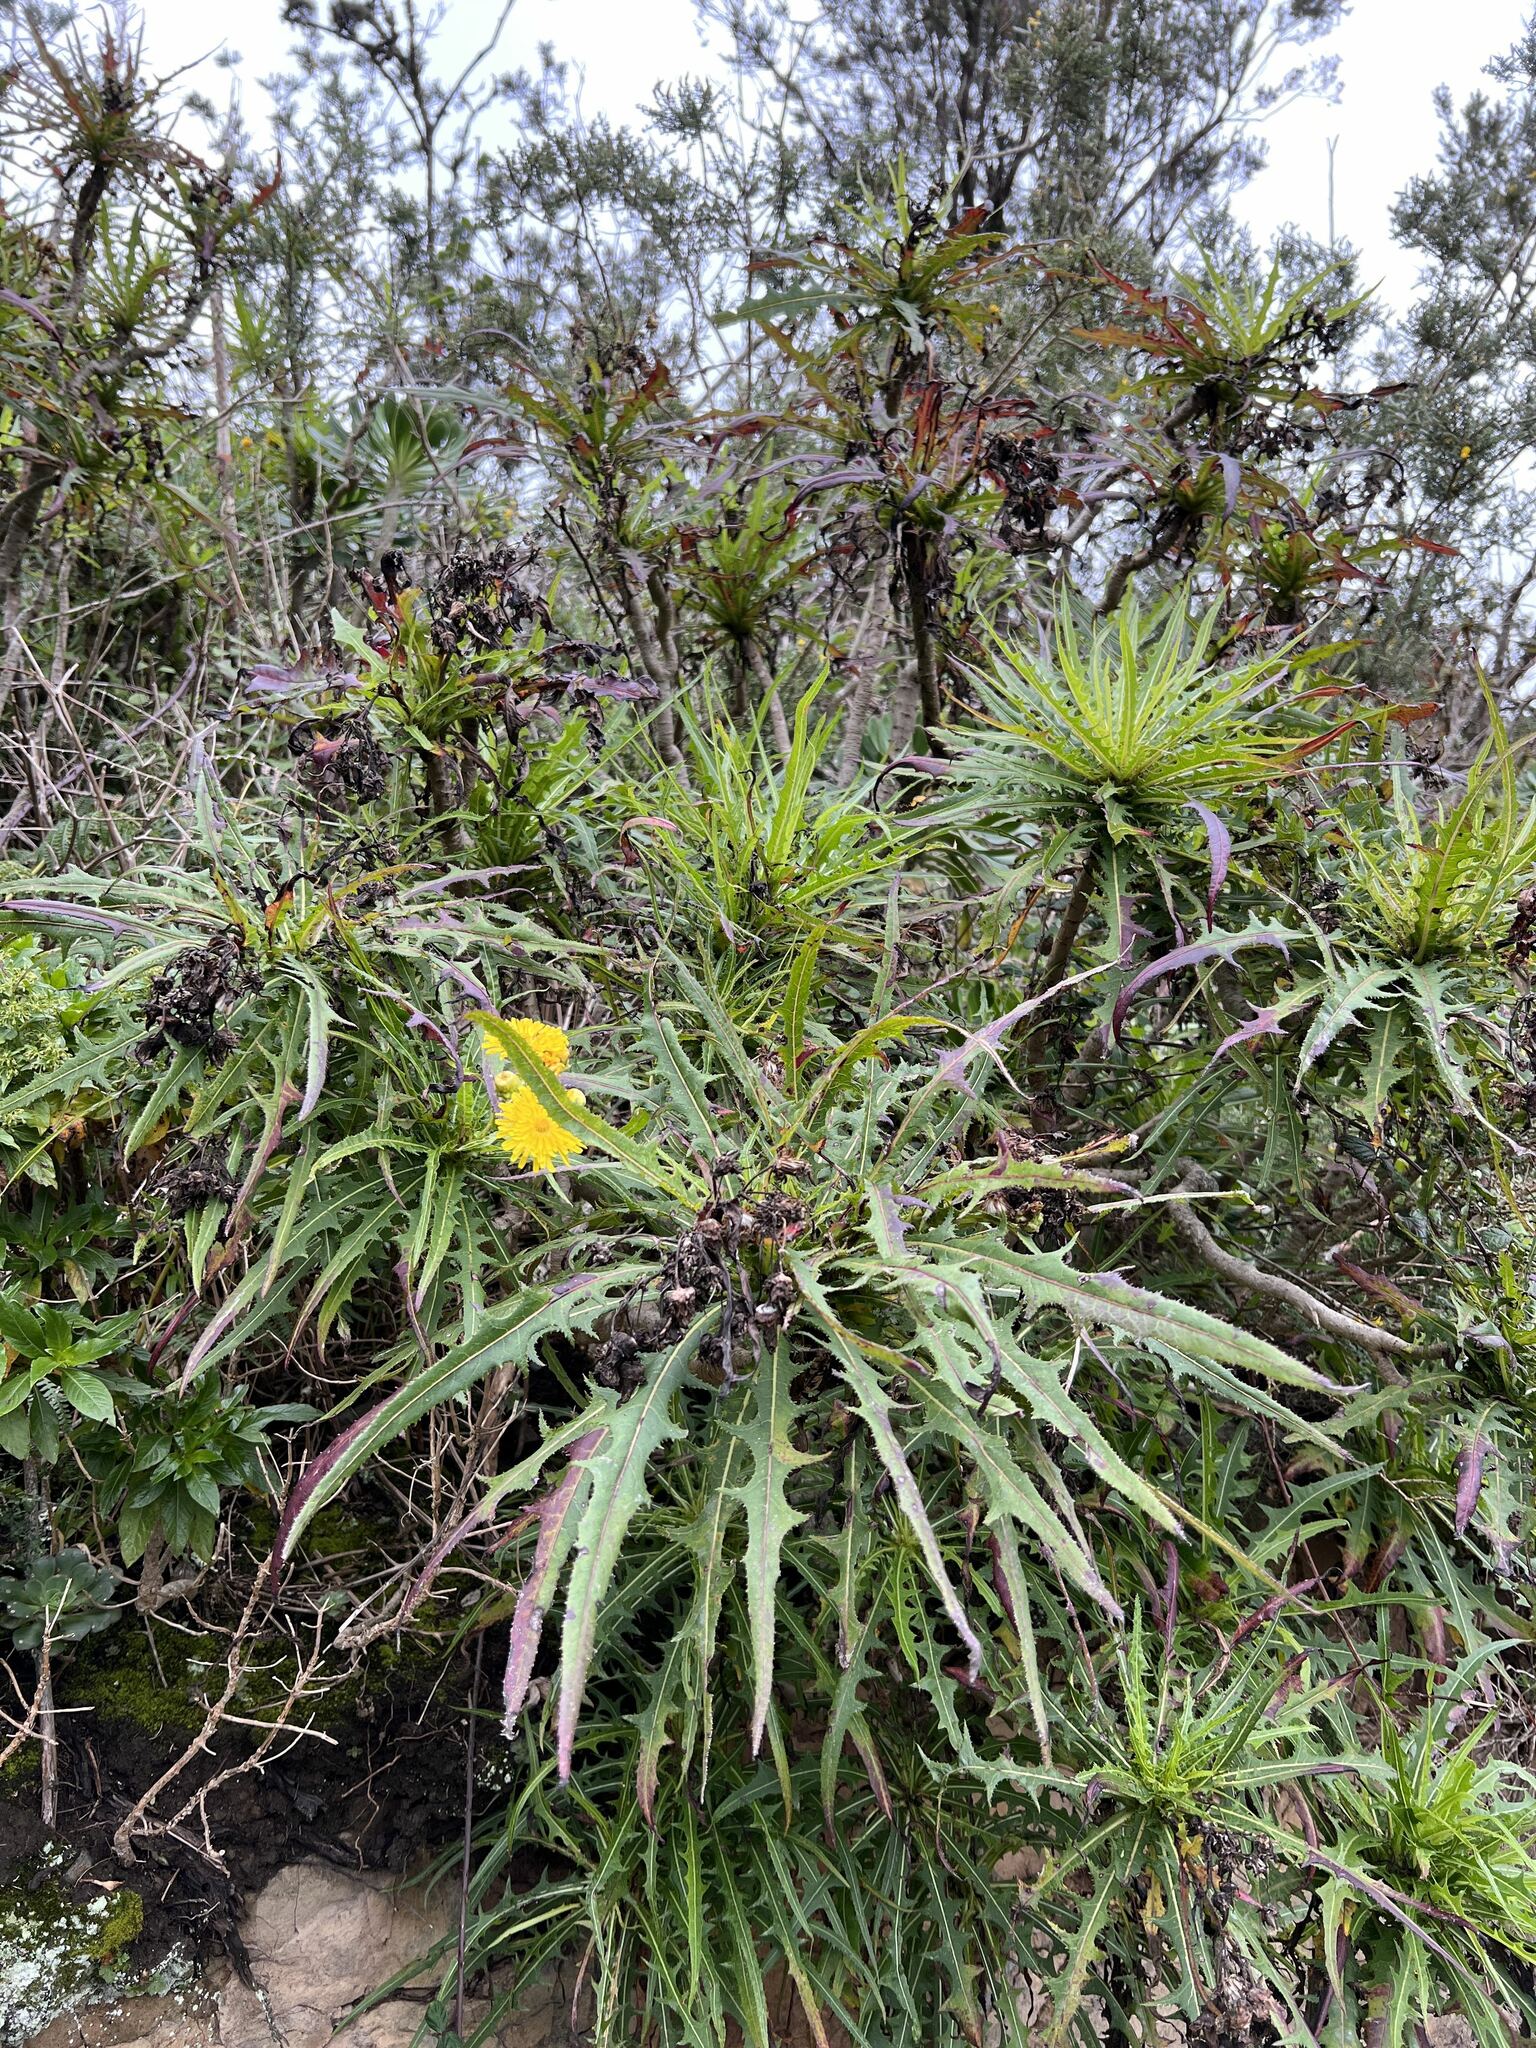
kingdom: Plantae
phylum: Tracheophyta
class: Magnoliopsida
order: Asterales
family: Asteraceae
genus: Sonchus
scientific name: Sonchus congestus
